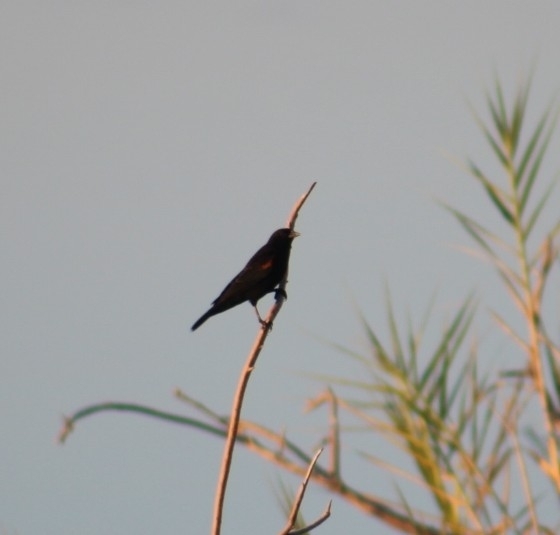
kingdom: Animalia
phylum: Chordata
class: Aves
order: Passeriformes
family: Icteridae
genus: Agelaius
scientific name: Agelaius phoeniceus
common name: Red-winged blackbird
